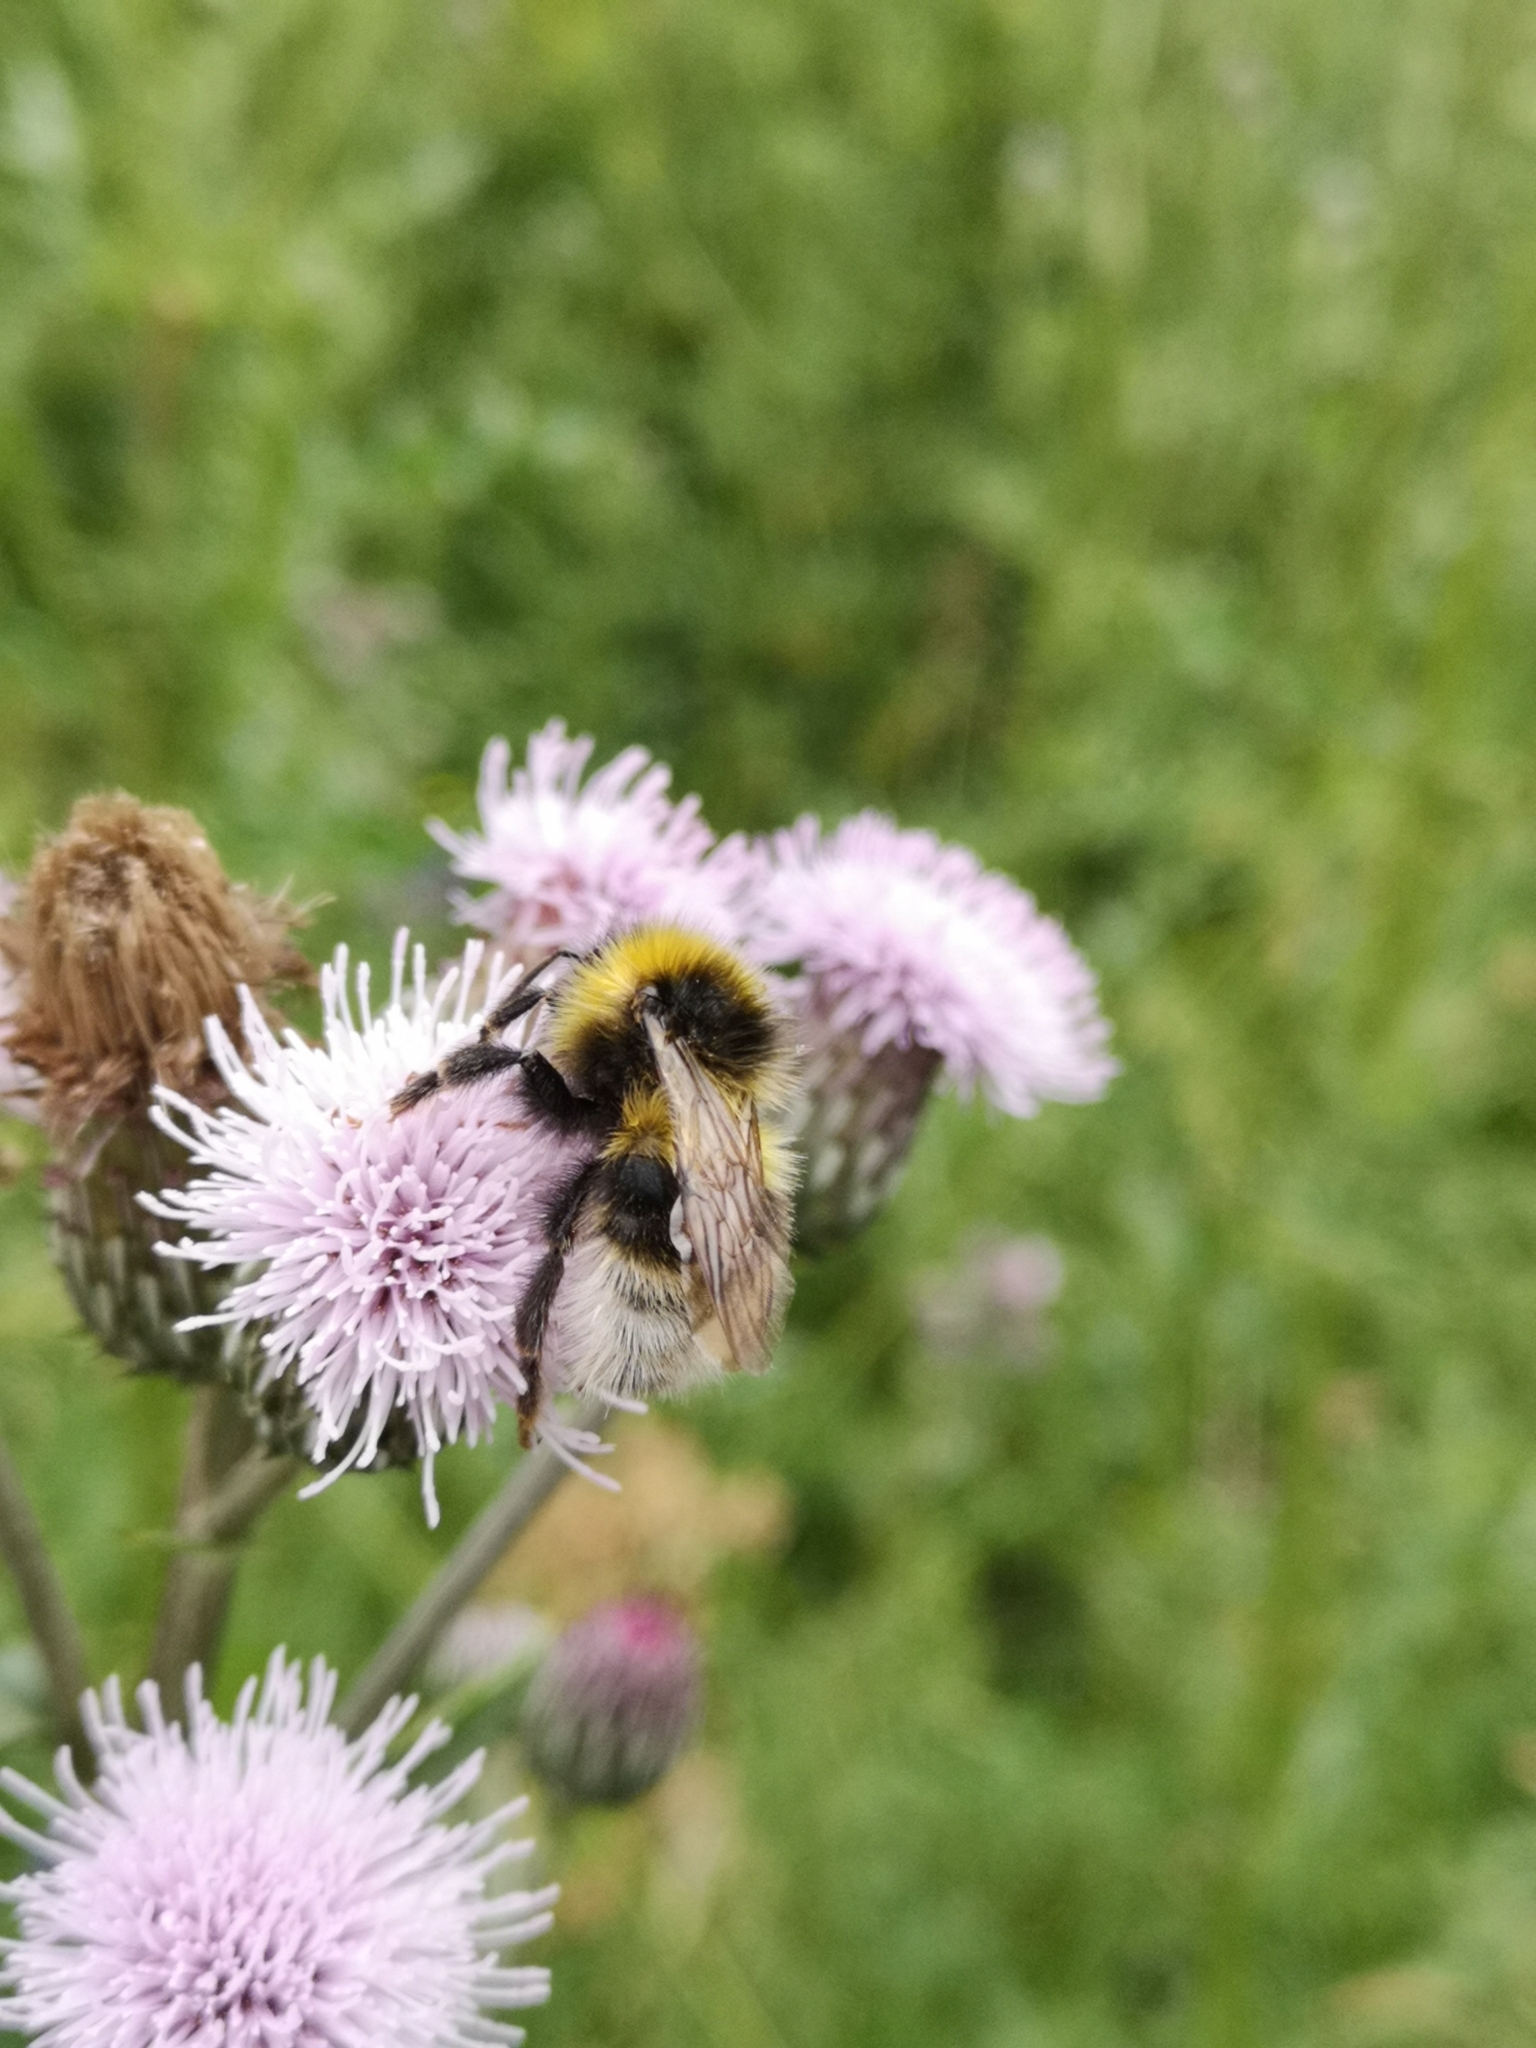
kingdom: Animalia
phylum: Arthropoda
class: Insecta
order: Hymenoptera
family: Apidae
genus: Bombus
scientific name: Bombus jonellus
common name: Heath humble-bee
